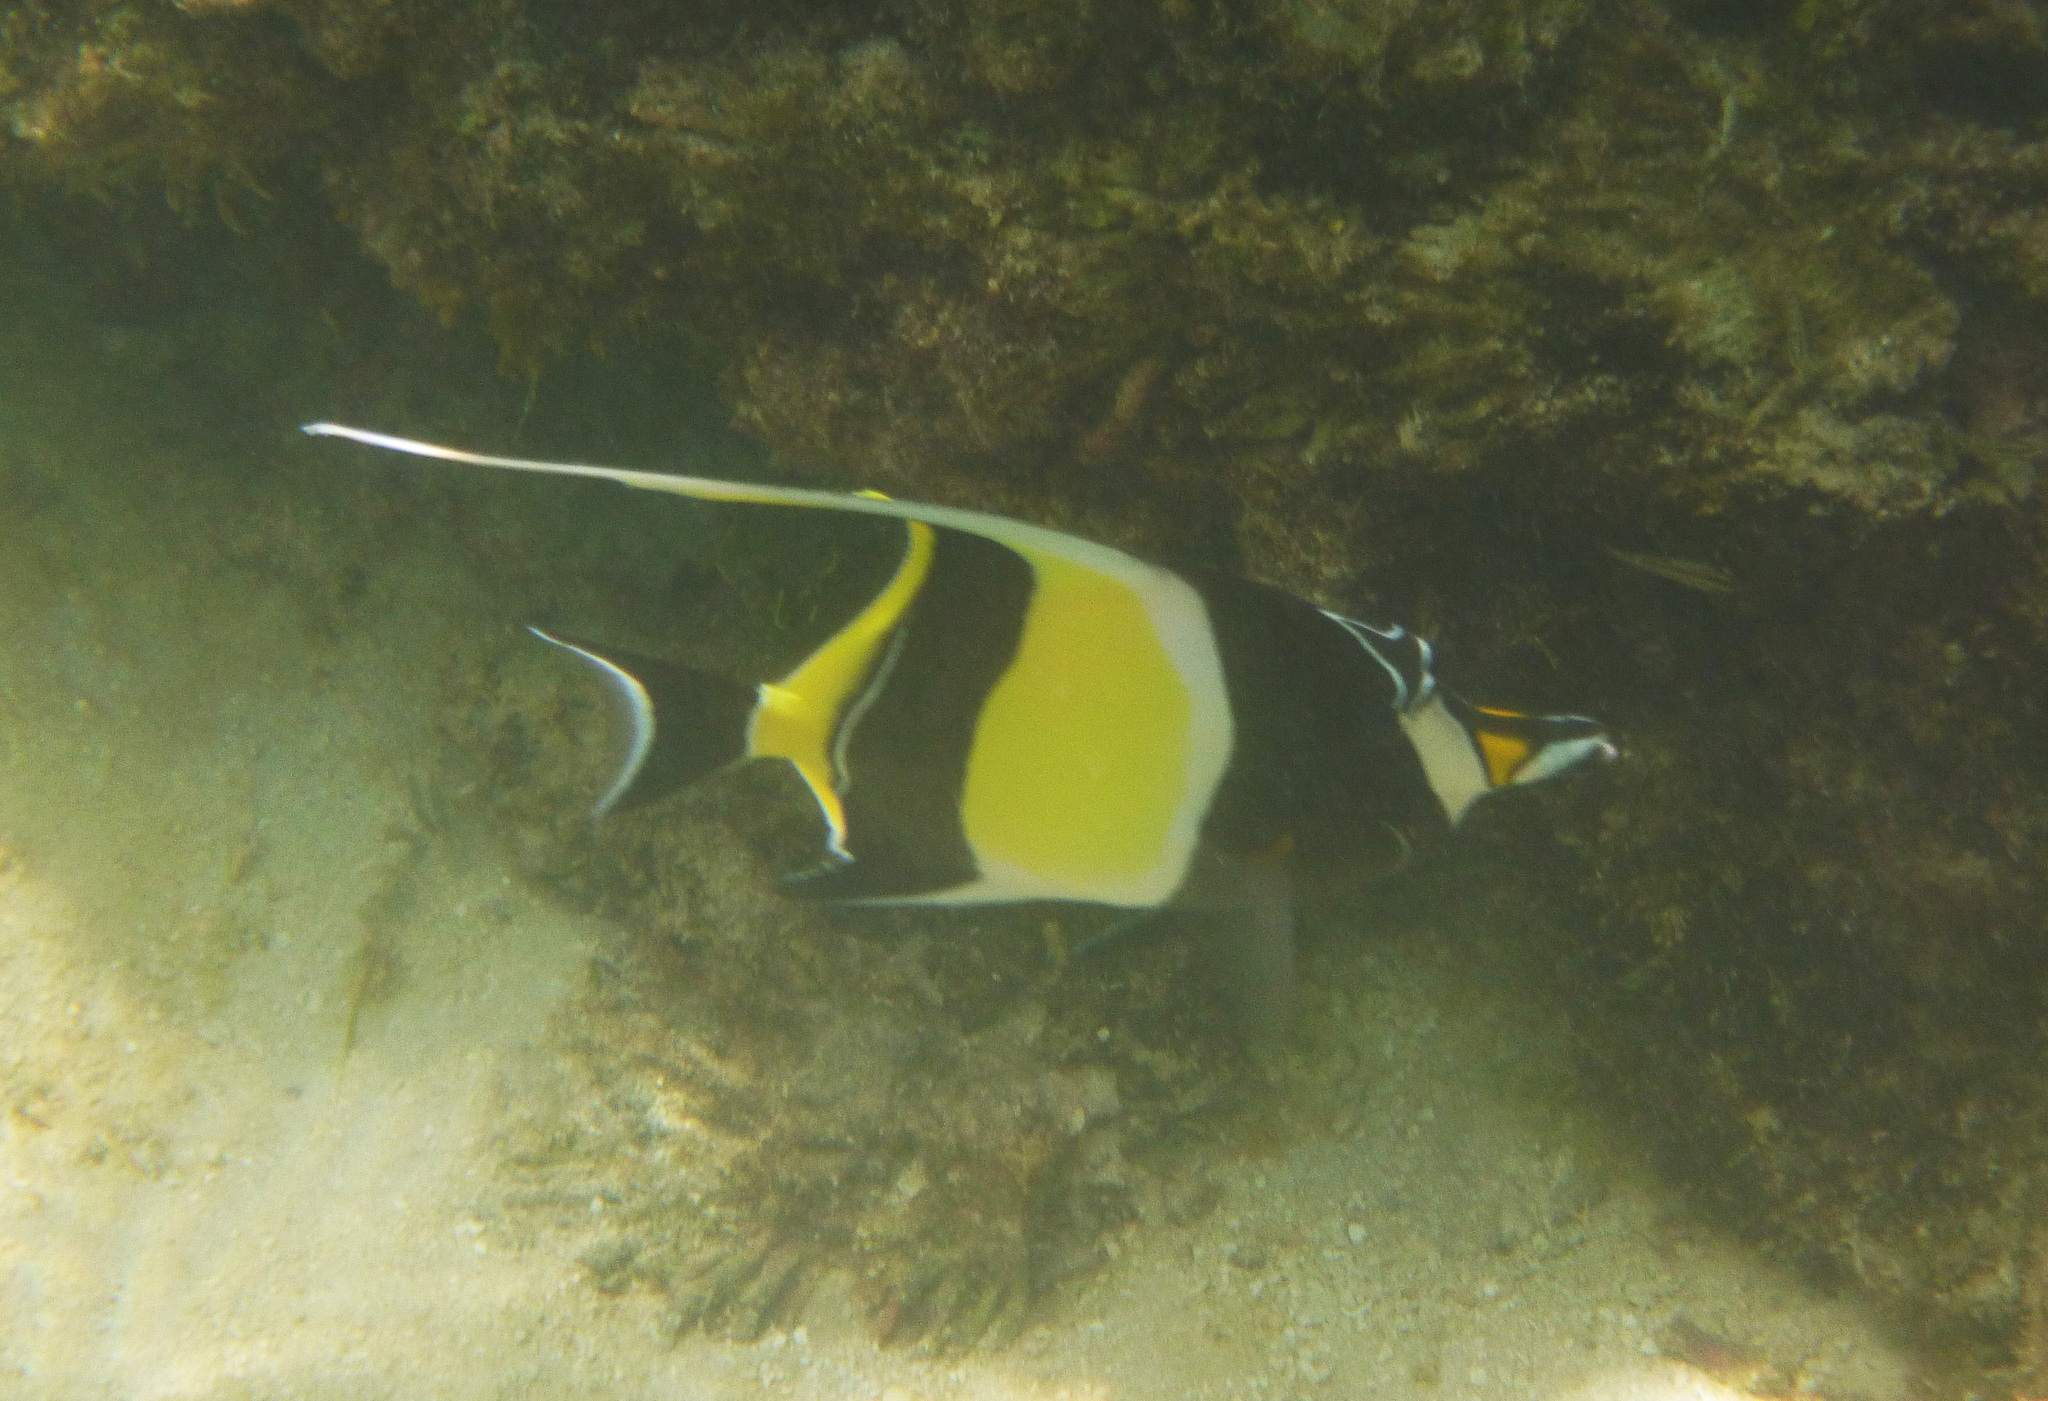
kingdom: Animalia
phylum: Chordata
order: Perciformes
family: Zanclidae
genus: Zanclus
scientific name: Zanclus cornutus
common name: Moorish idol
